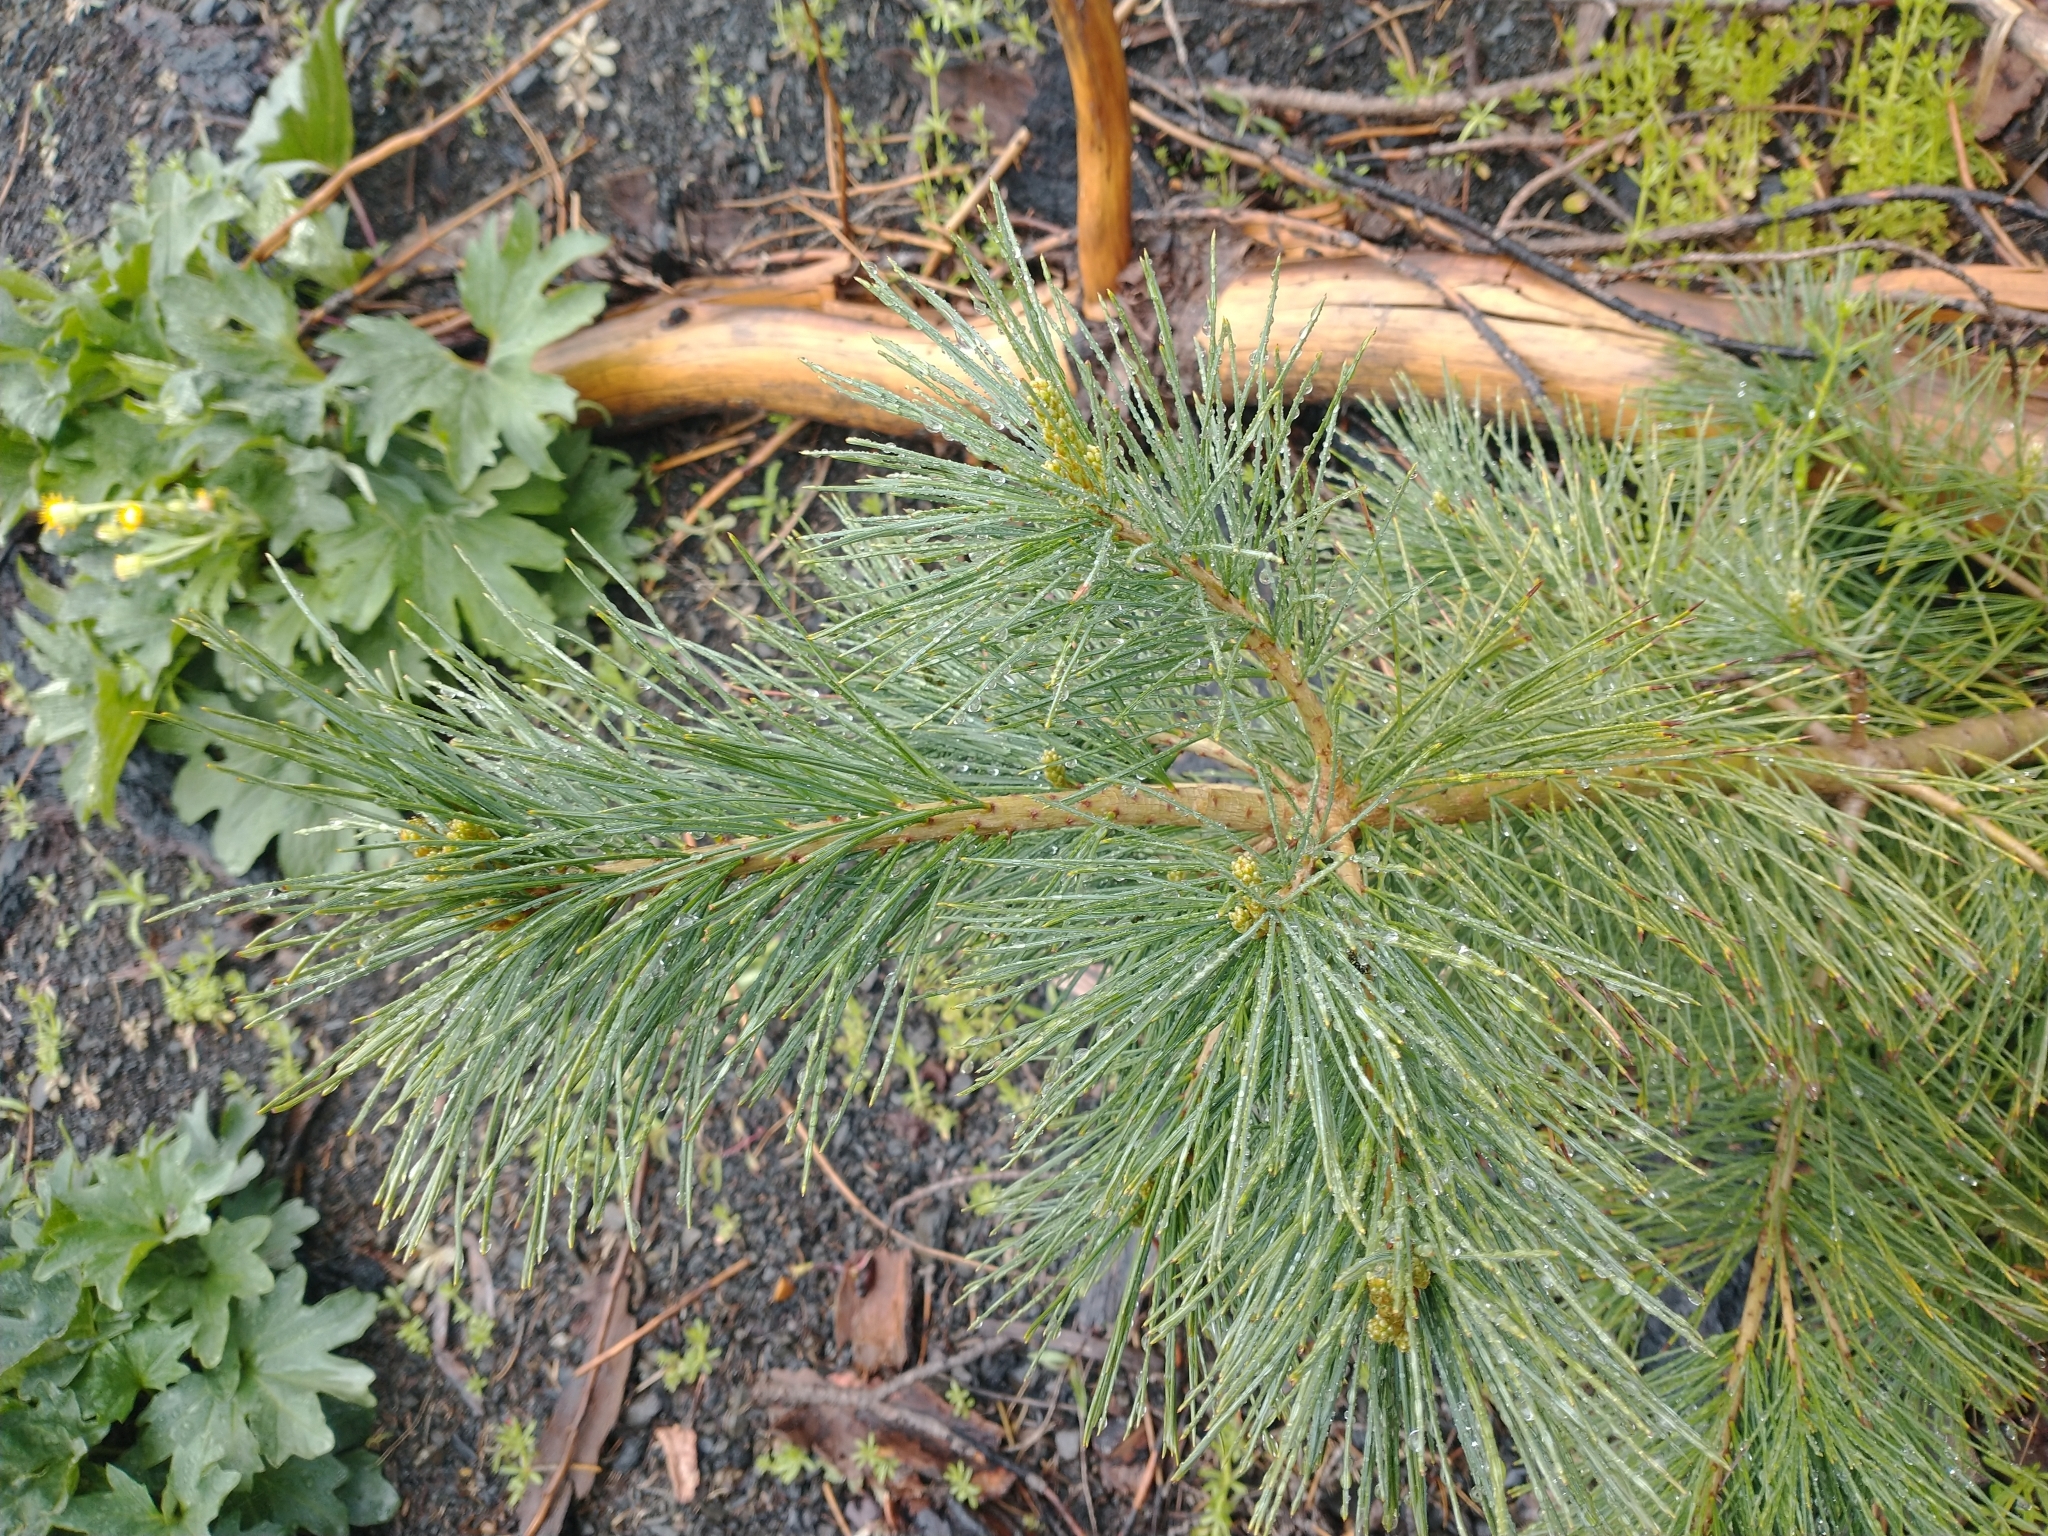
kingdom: Plantae
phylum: Tracheophyta
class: Pinopsida
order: Pinales
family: Pinaceae
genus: Pinus
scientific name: Pinus lambertiana
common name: Sugar pine
